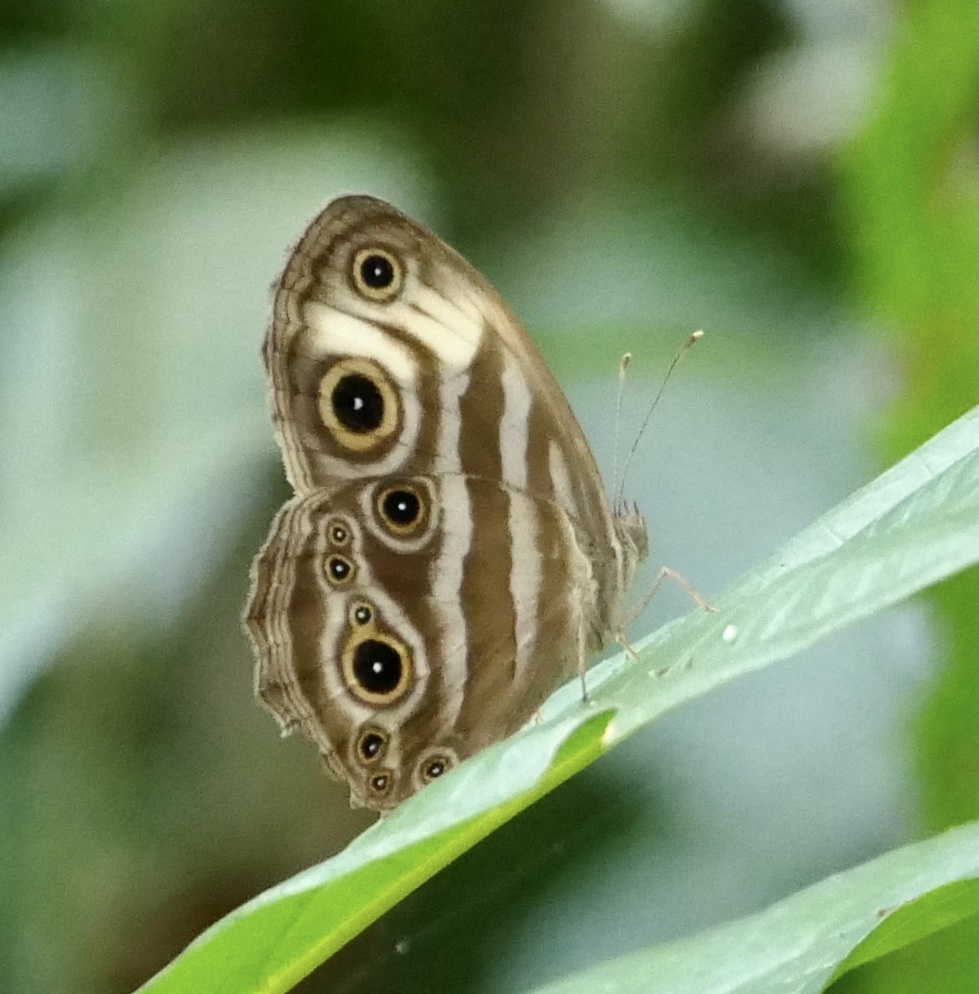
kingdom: Animalia
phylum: Arthropoda
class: Insecta
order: Lepidoptera
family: Nymphalidae
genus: Bicyclus
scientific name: Bicyclus maesseni
